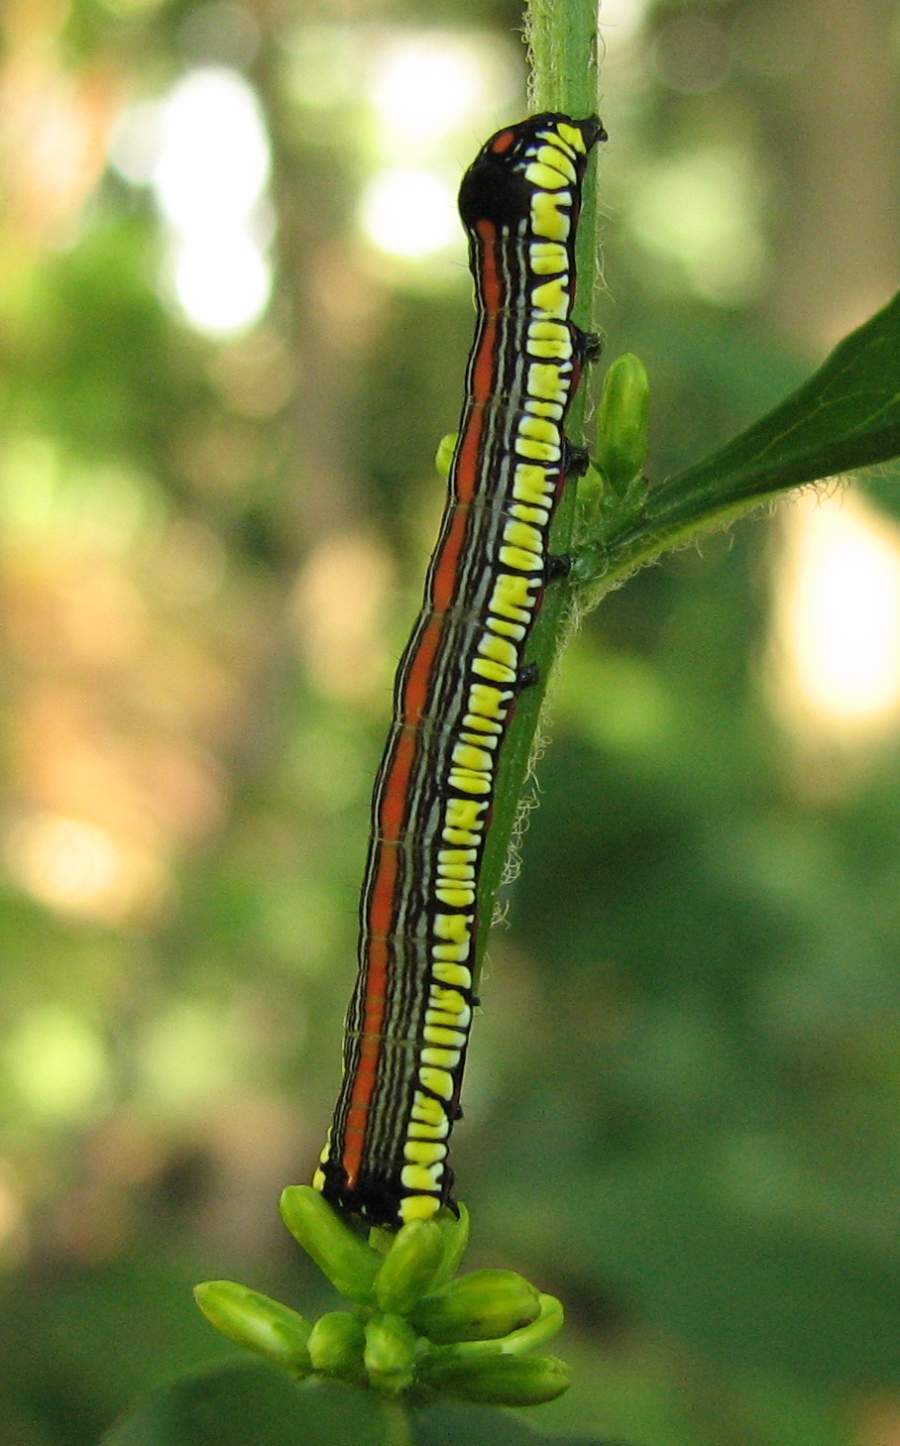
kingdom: Animalia
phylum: Arthropoda
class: Insecta
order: Lepidoptera
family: Noctuidae
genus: Cucullia
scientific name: Cucullia convexipennis
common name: Brown-hooded owlet
